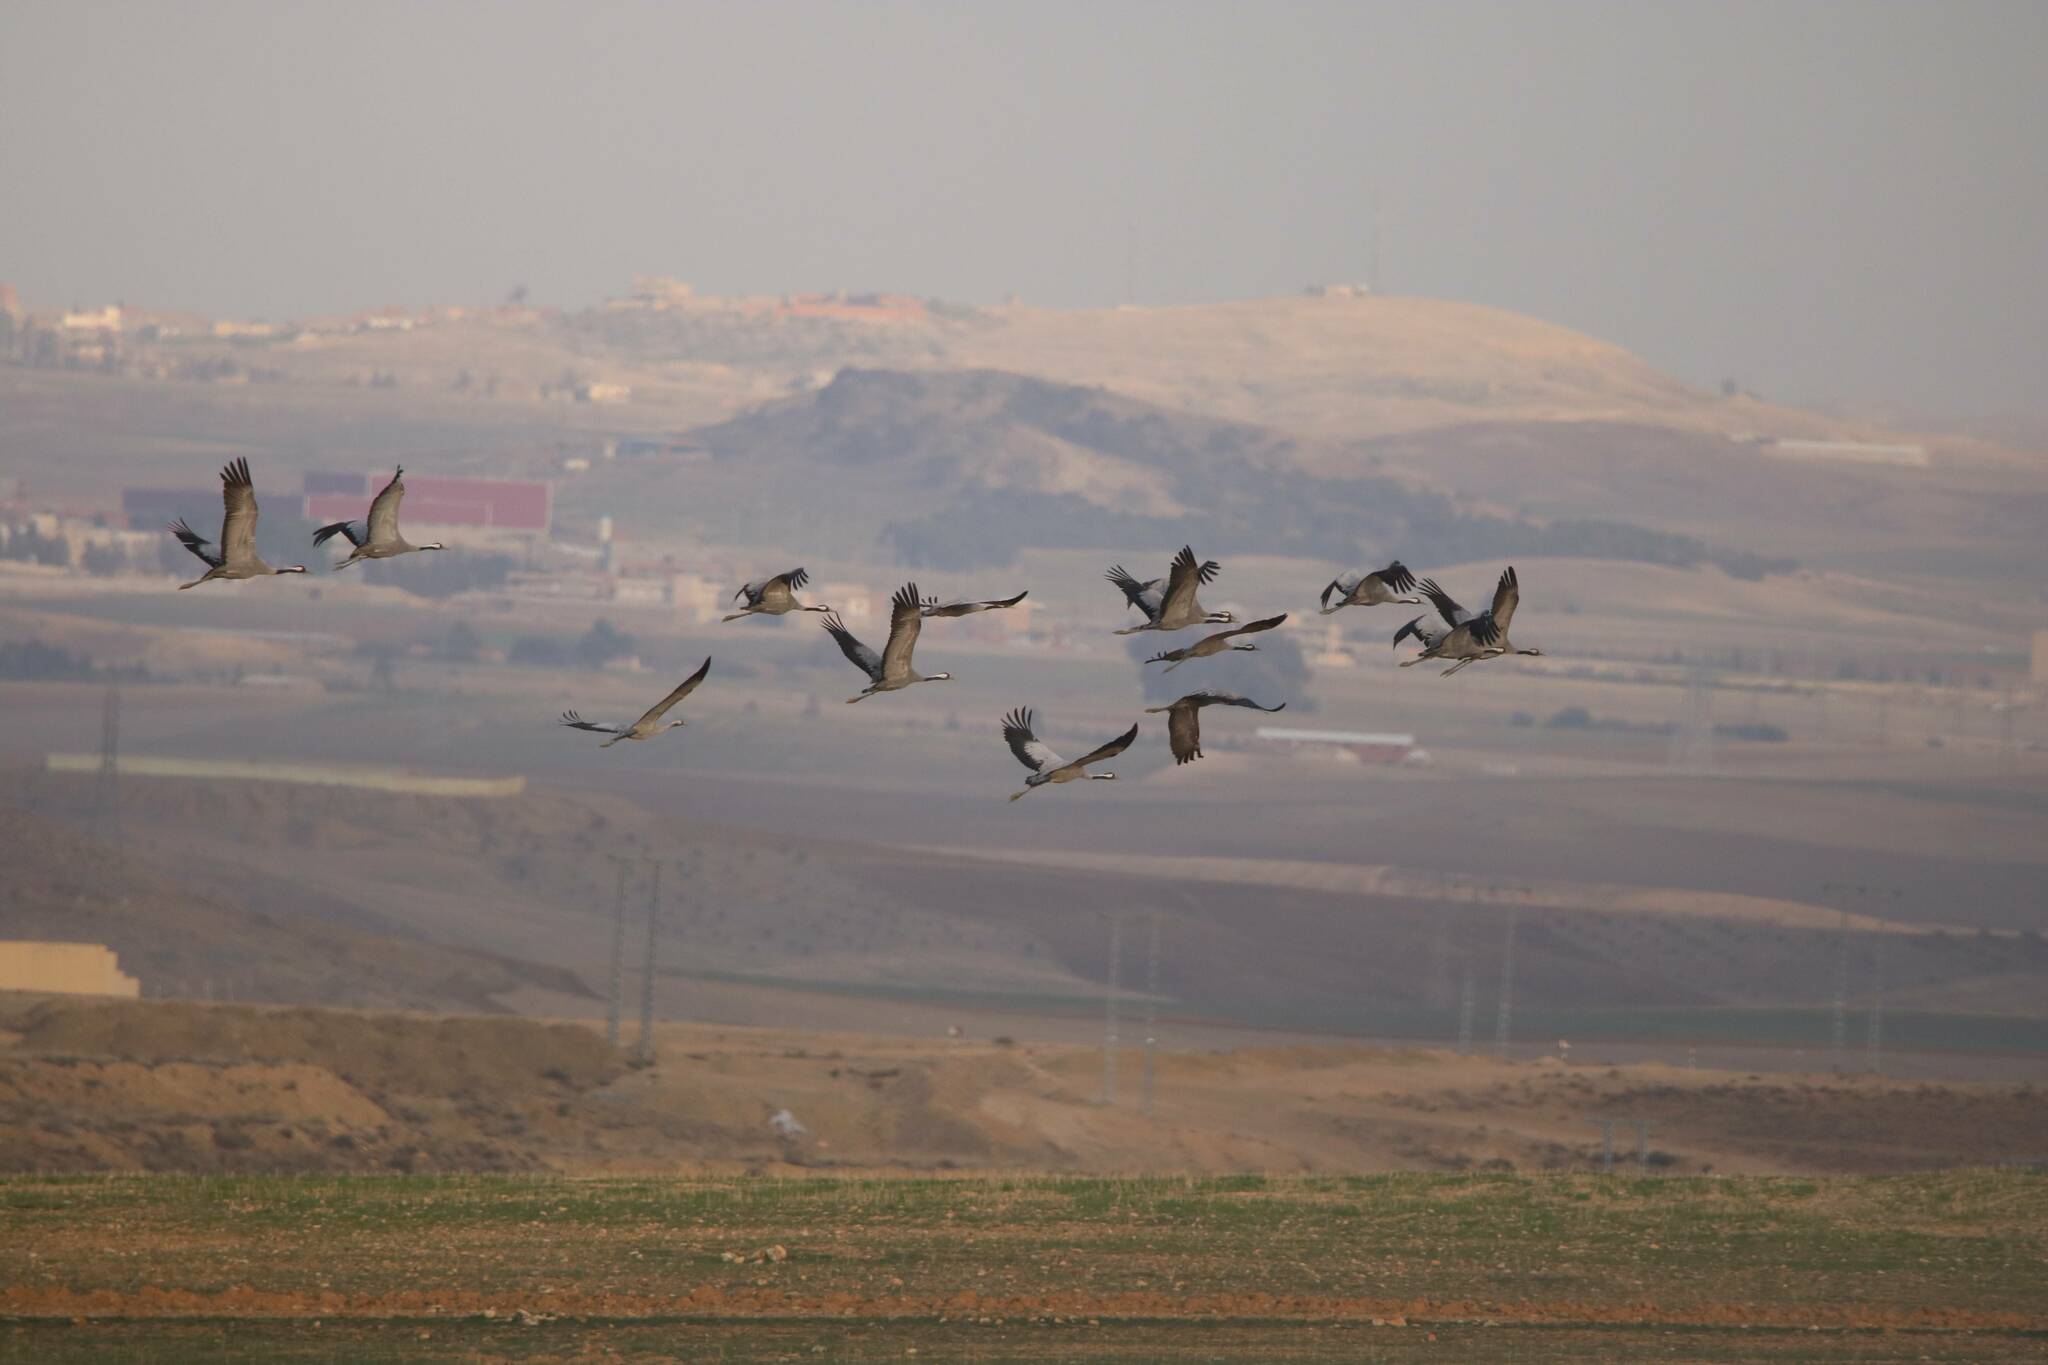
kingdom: Animalia
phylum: Chordata
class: Aves
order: Gruiformes
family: Gruidae
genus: Grus
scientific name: Grus grus
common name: Common crane
